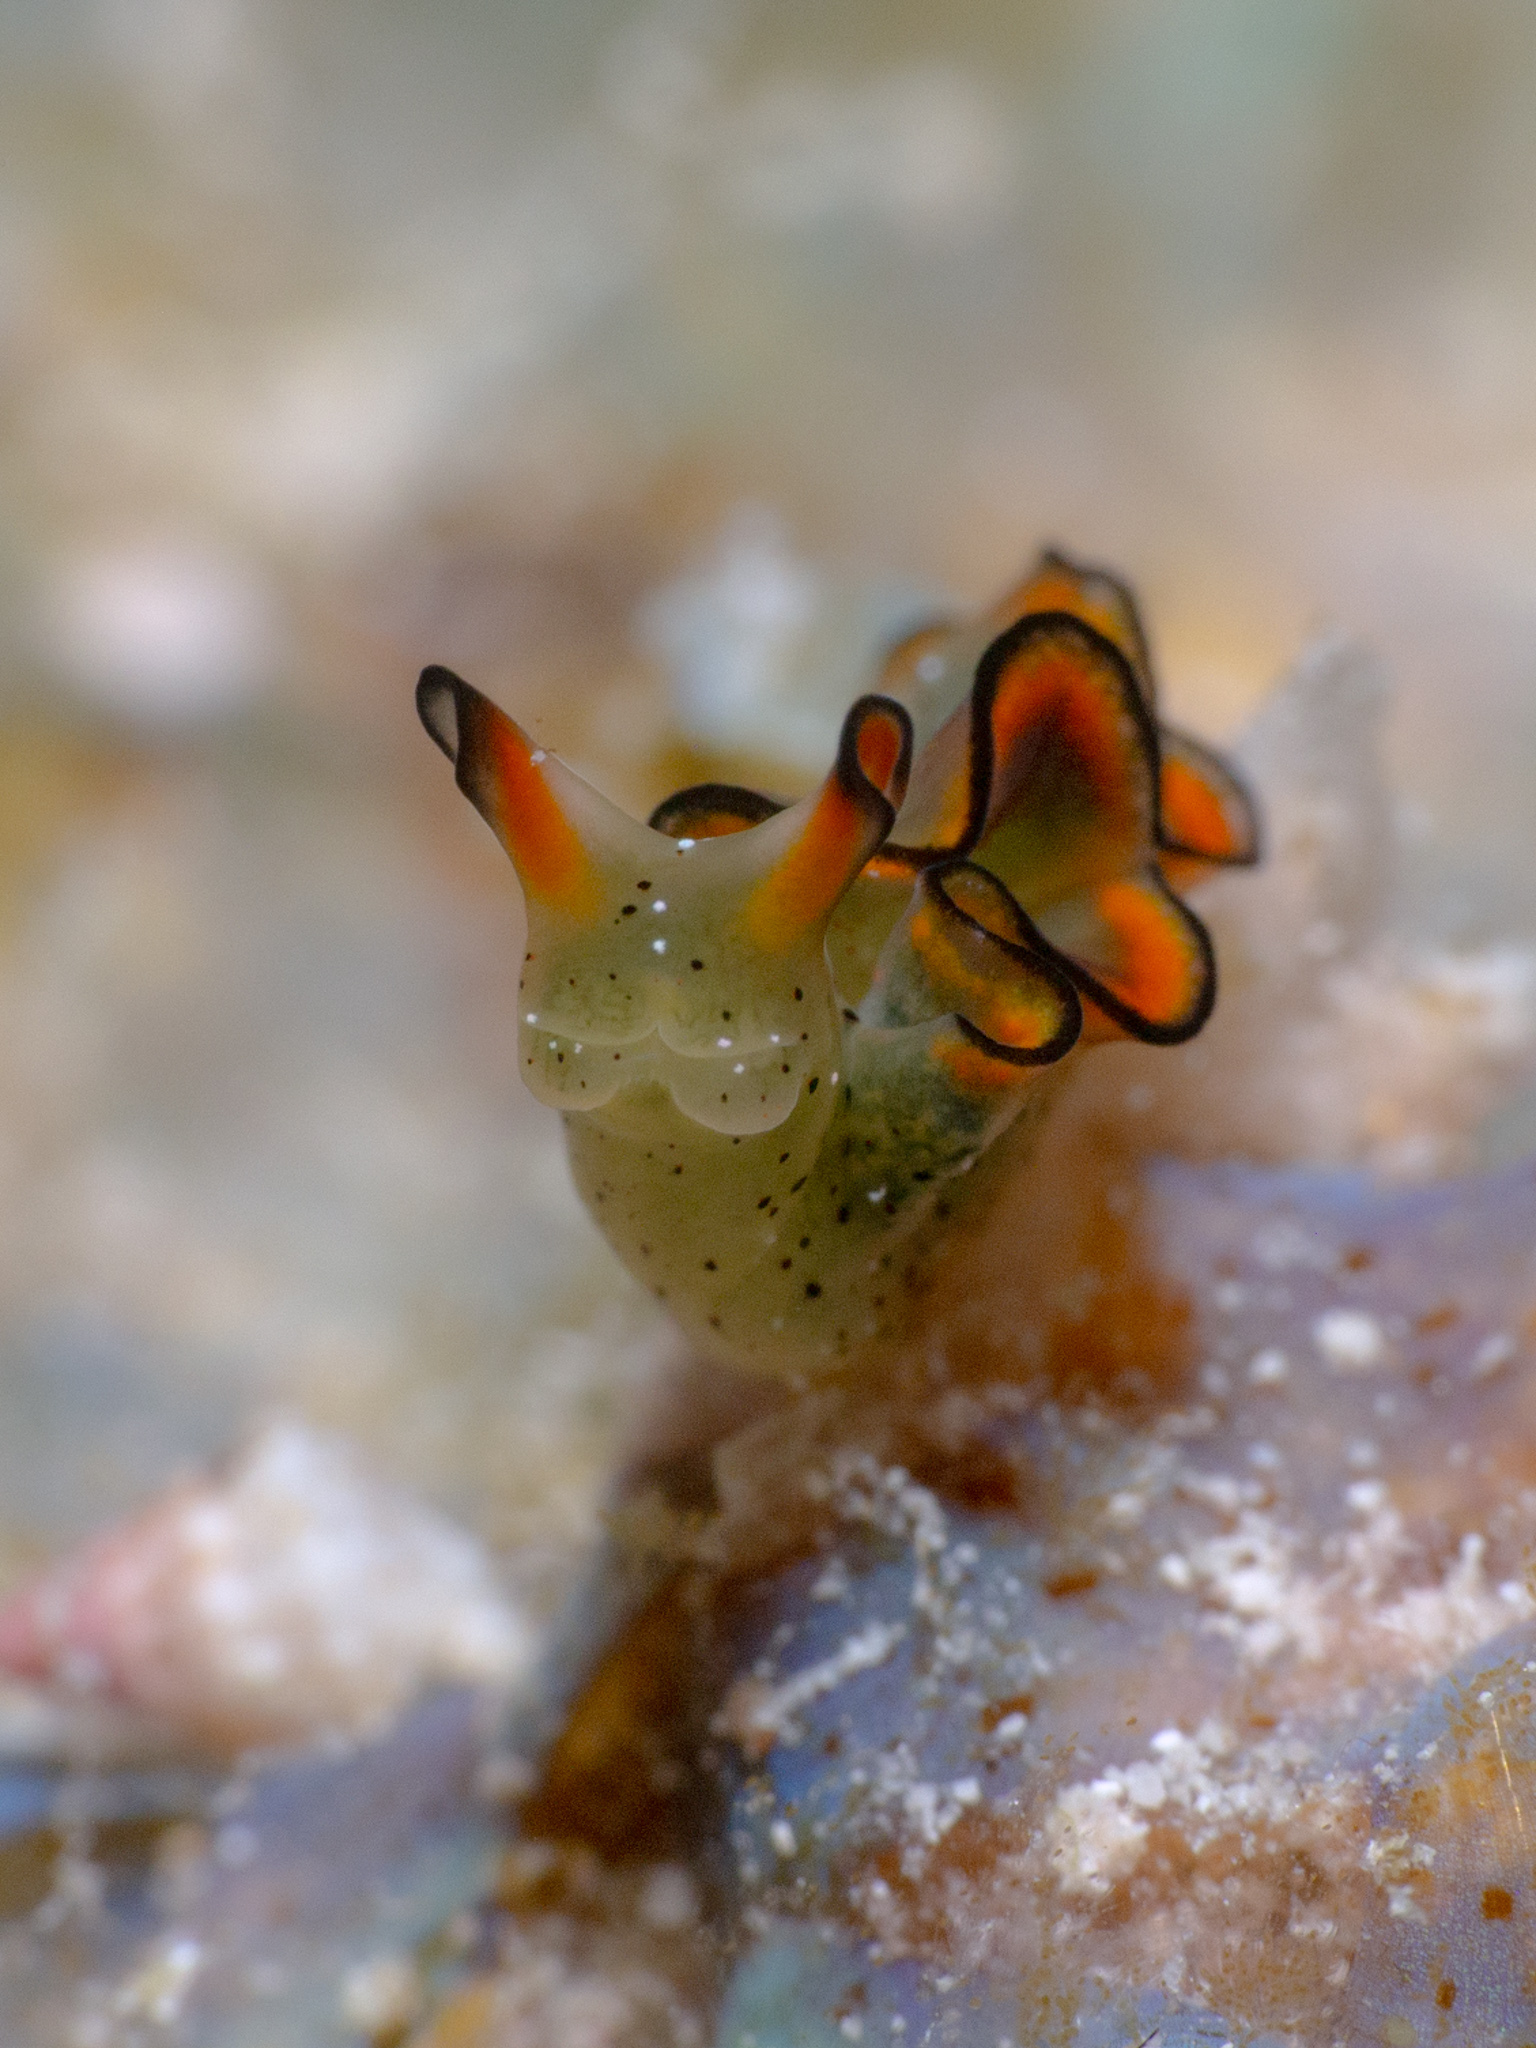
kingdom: Animalia
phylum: Mollusca
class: Gastropoda
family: Plakobranchidae
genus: Elysia
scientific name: Elysia ornata
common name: Ornate elysia
